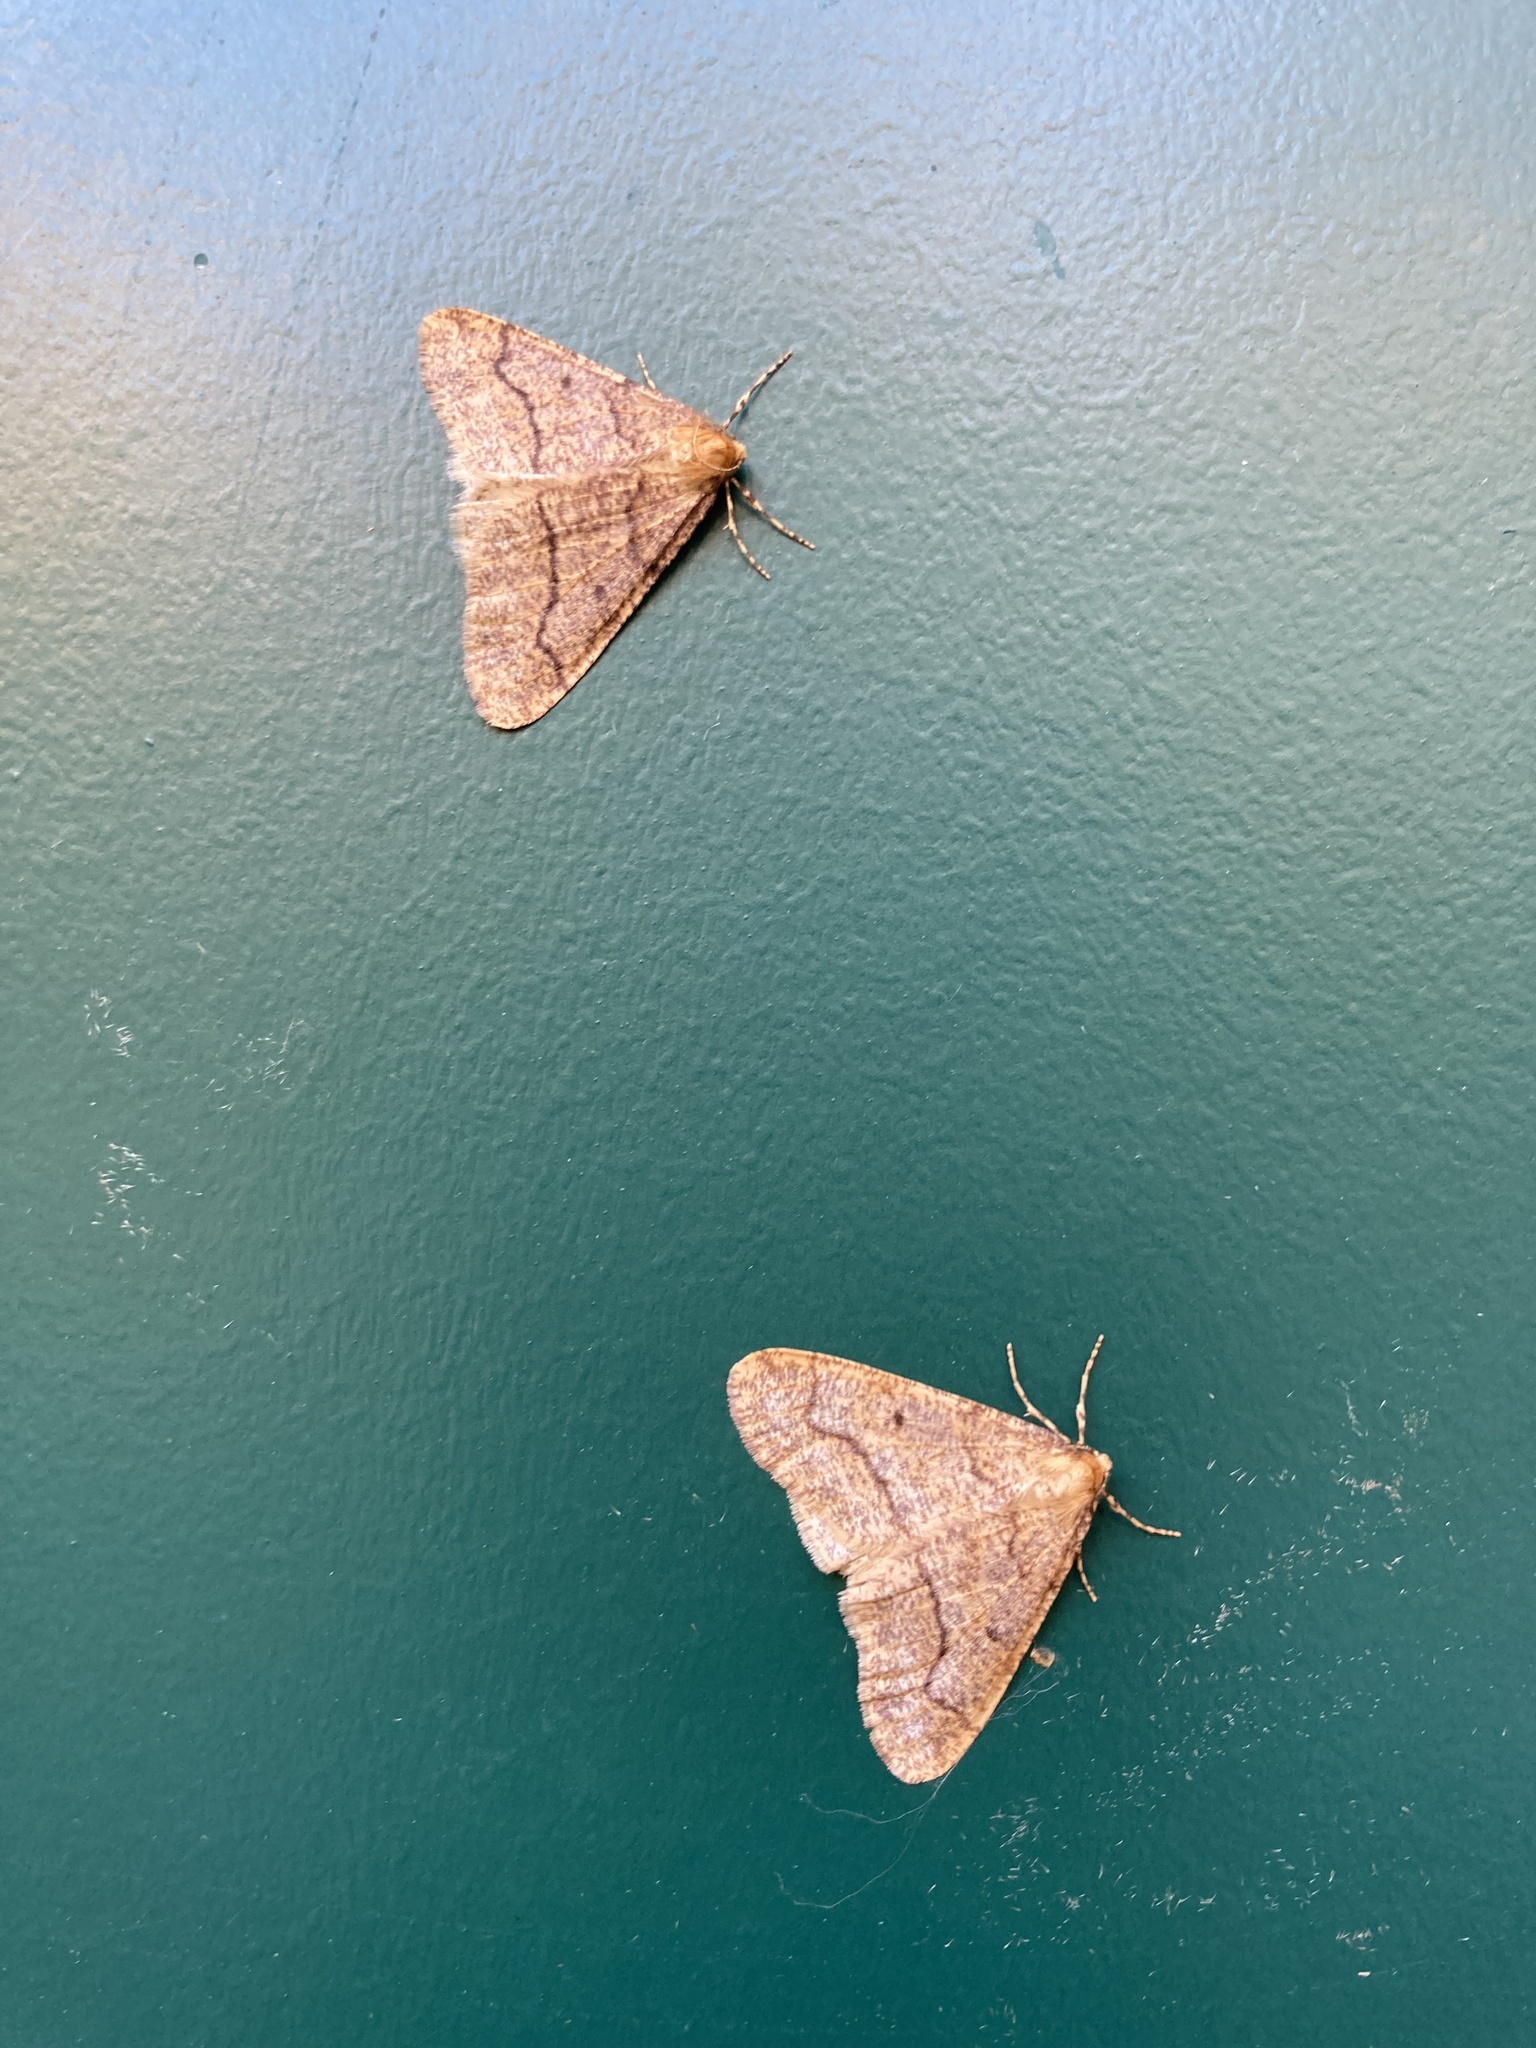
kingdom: Animalia
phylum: Arthropoda
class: Insecta
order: Lepidoptera
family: Geometridae
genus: Erannis
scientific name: Erannis tiliaria
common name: Linden looper
